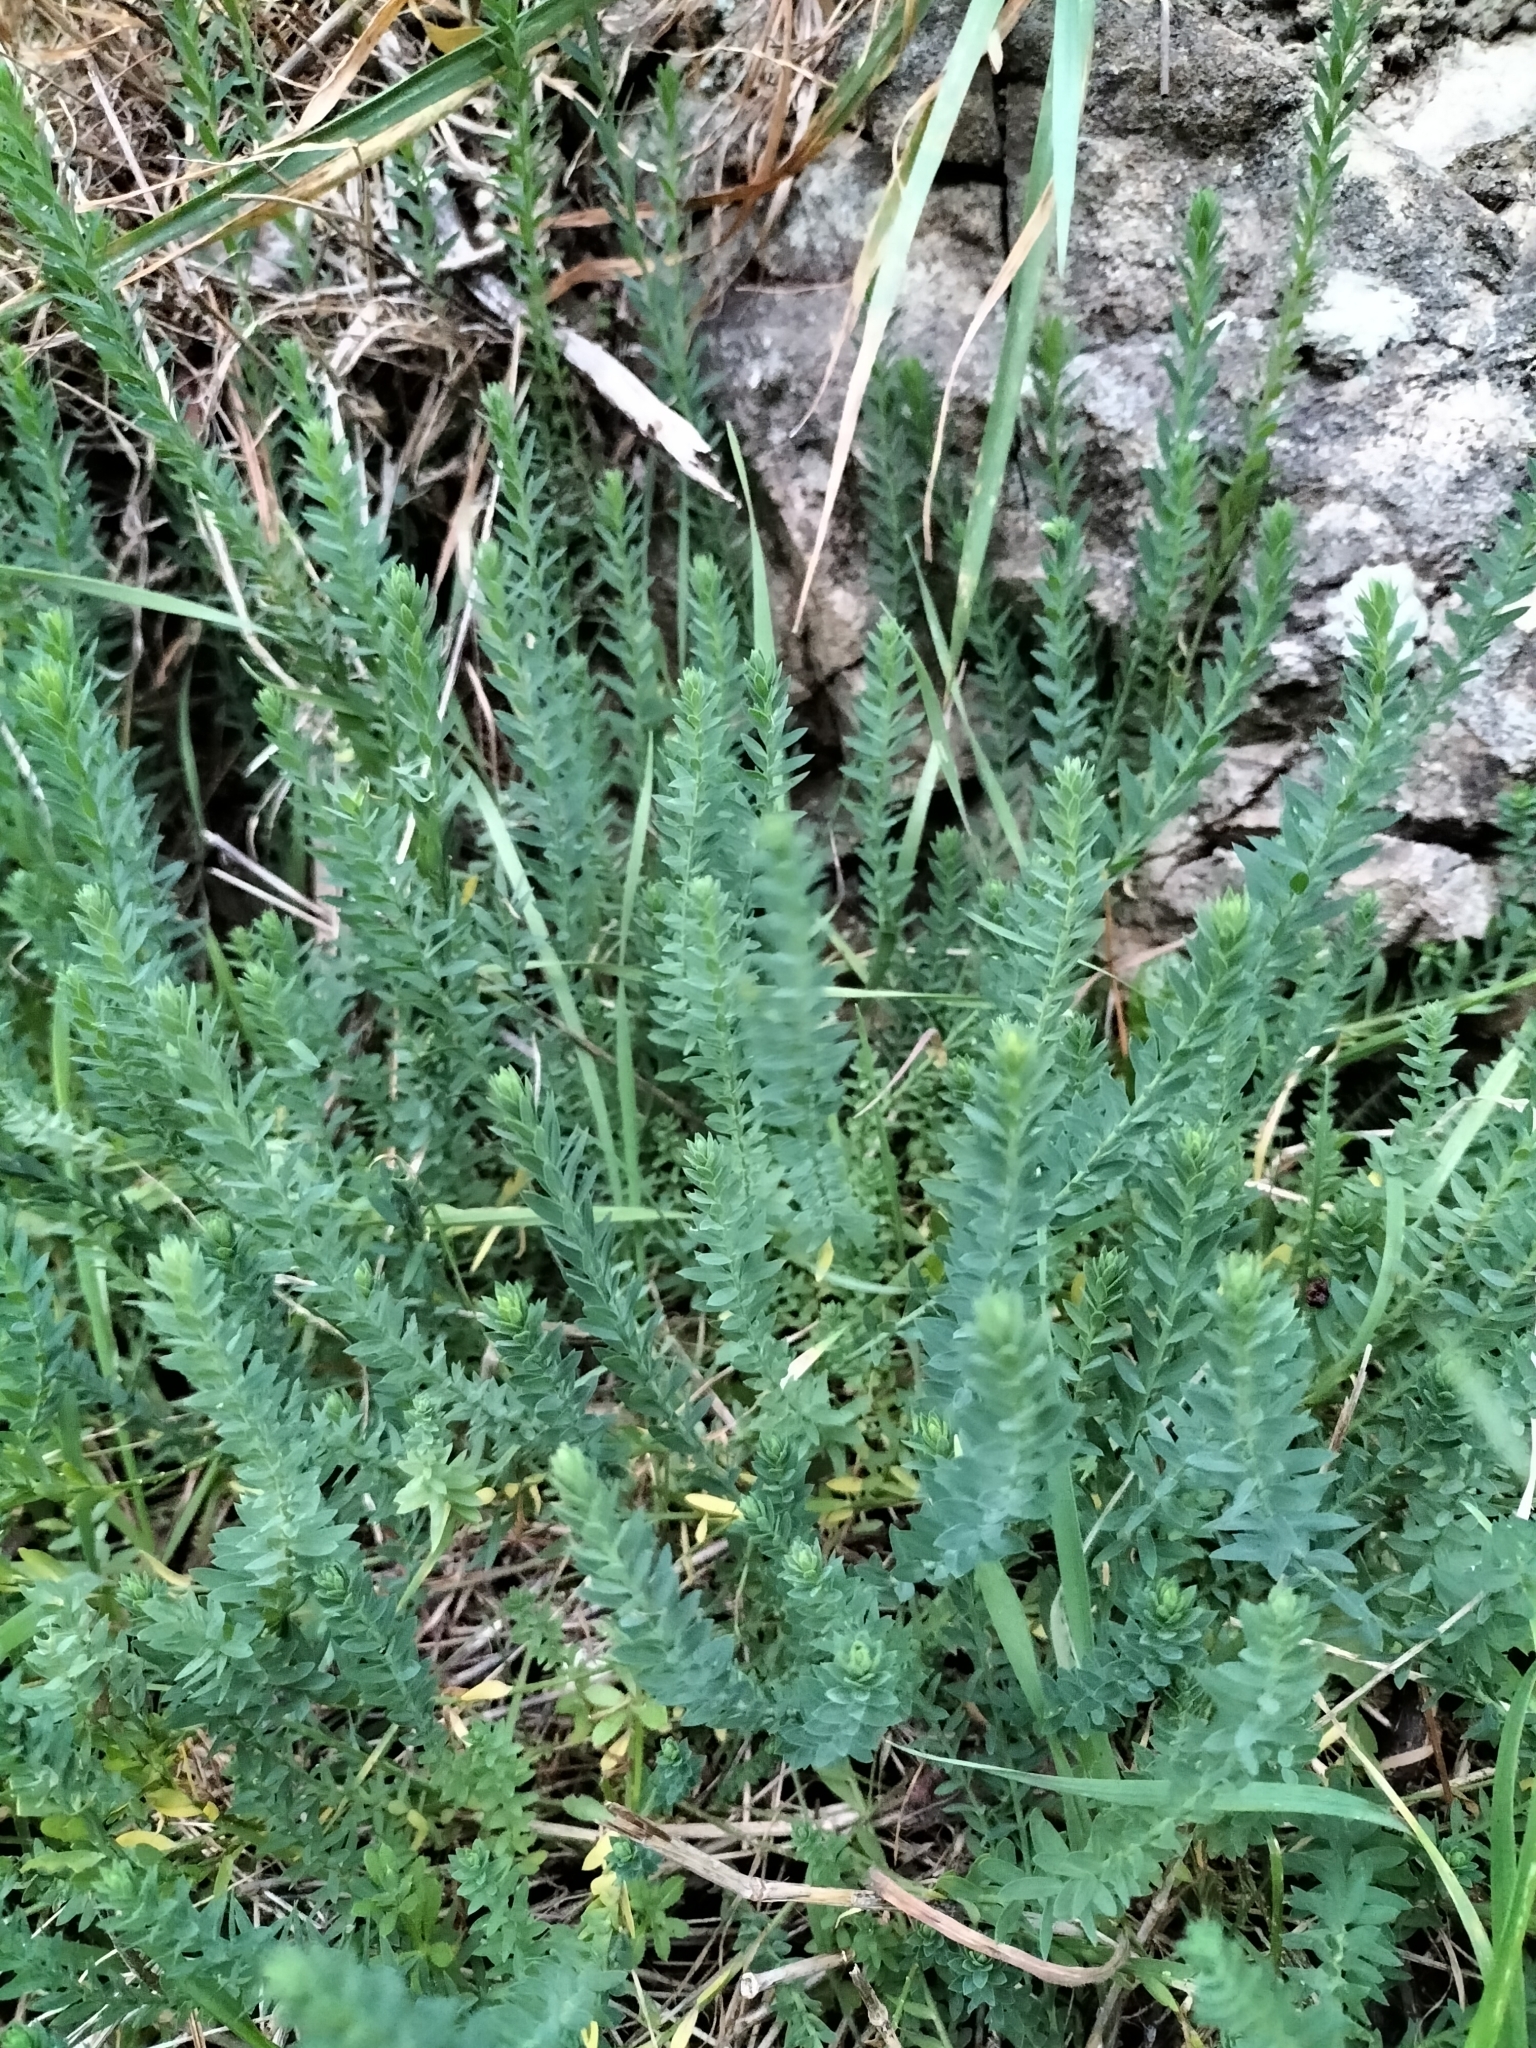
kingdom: Plantae
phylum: Tracheophyta
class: Magnoliopsida
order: Malpighiales
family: Linaceae
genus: Linum
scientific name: Linum monogynum
